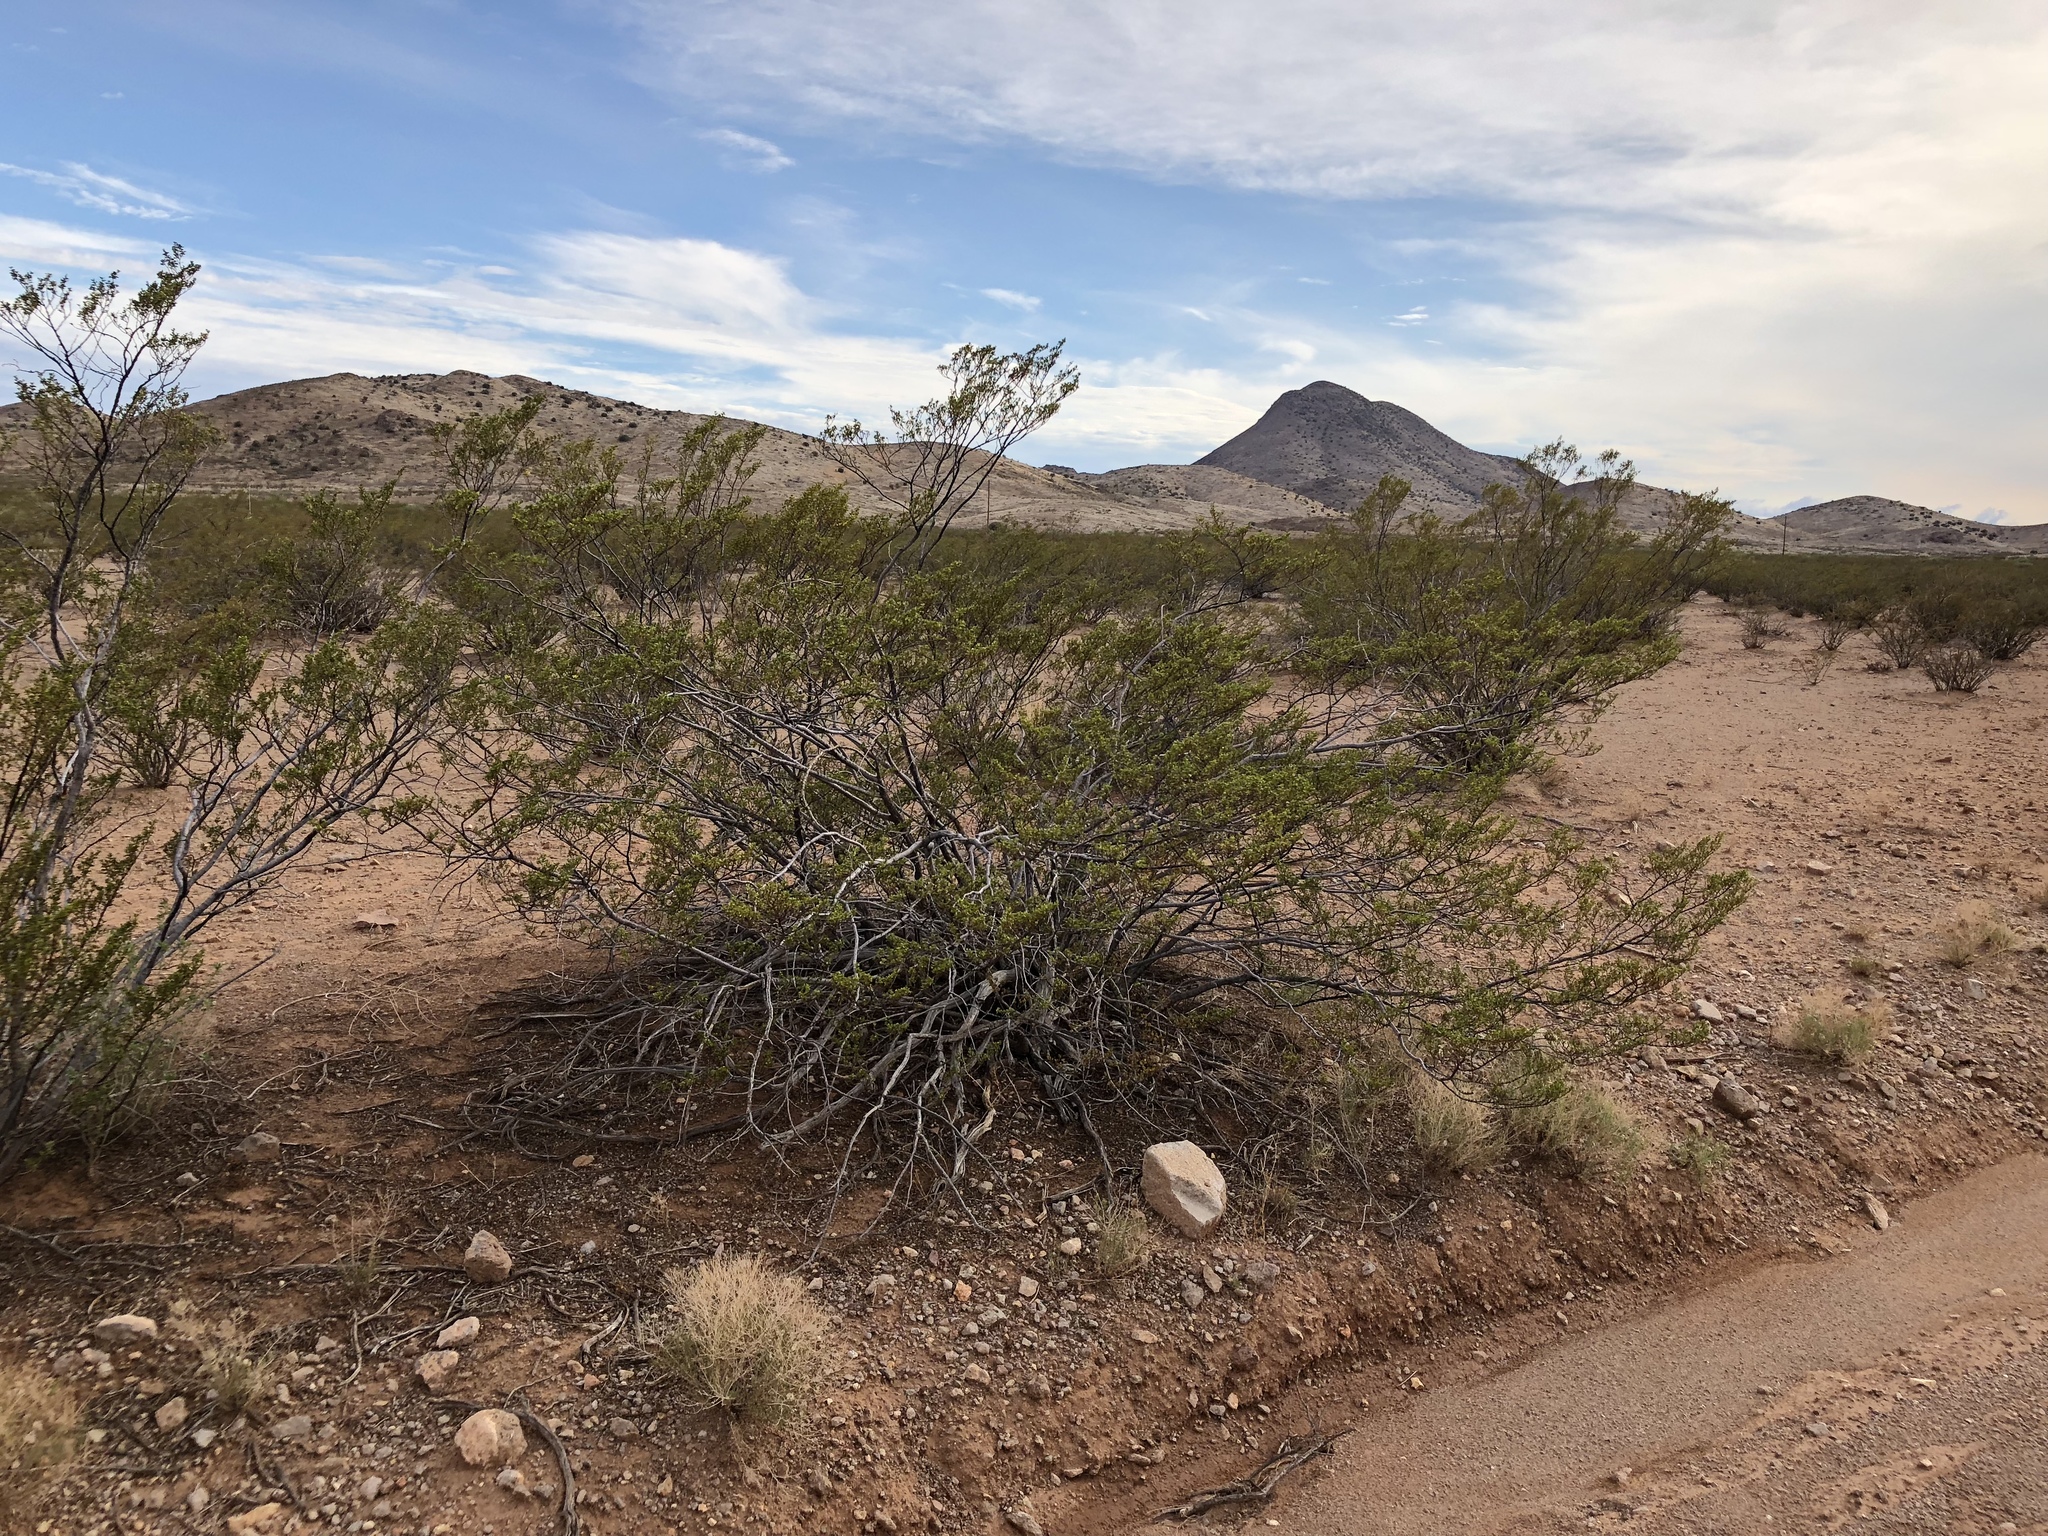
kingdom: Plantae
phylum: Tracheophyta
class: Magnoliopsida
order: Zygophyllales
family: Zygophyllaceae
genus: Larrea
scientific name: Larrea tridentata
